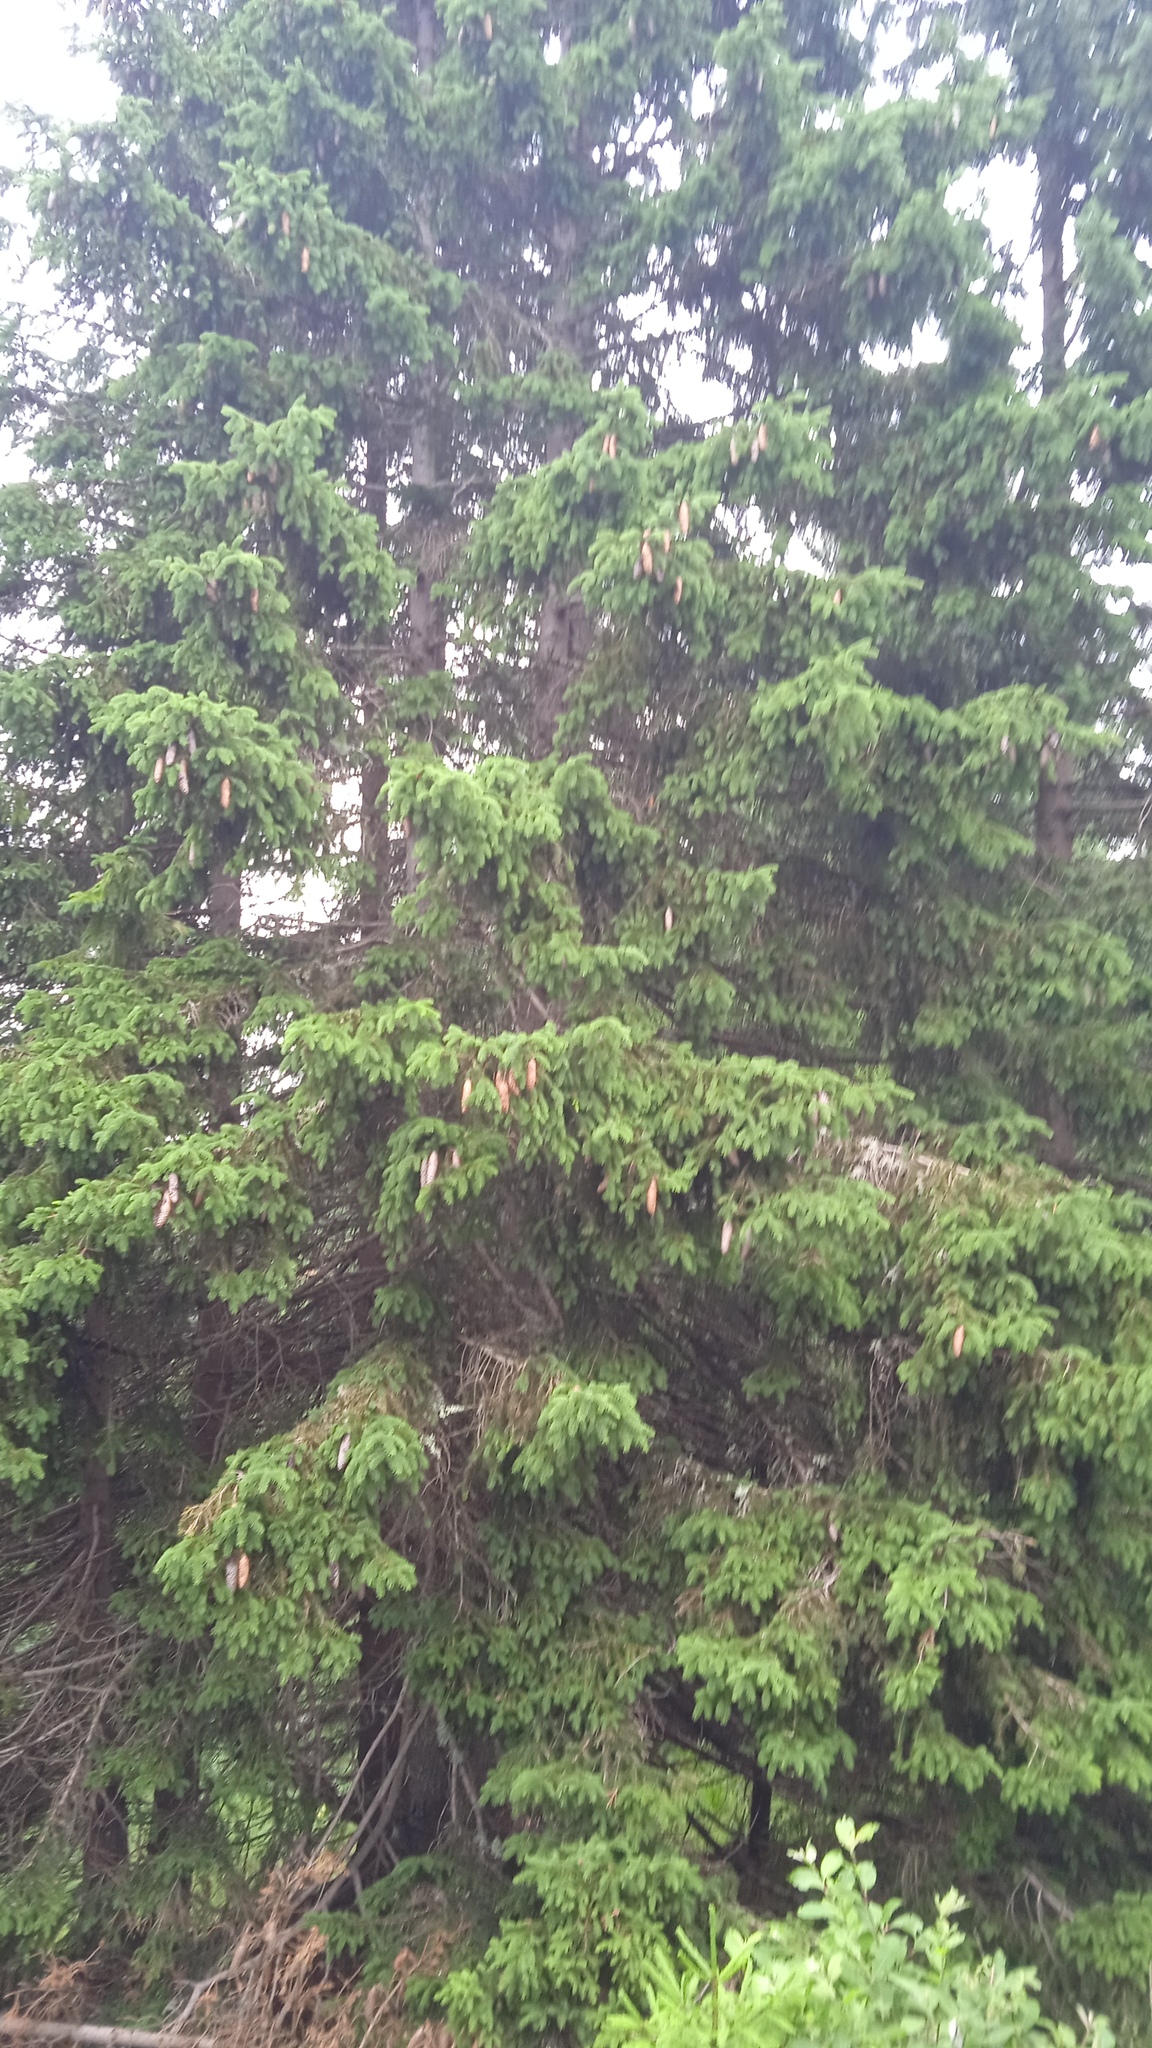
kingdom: Plantae
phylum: Tracheophyta
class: Pinopsida
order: Pinales
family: Pinaceae
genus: Picea
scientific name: Picea abies
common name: Norway spruce
